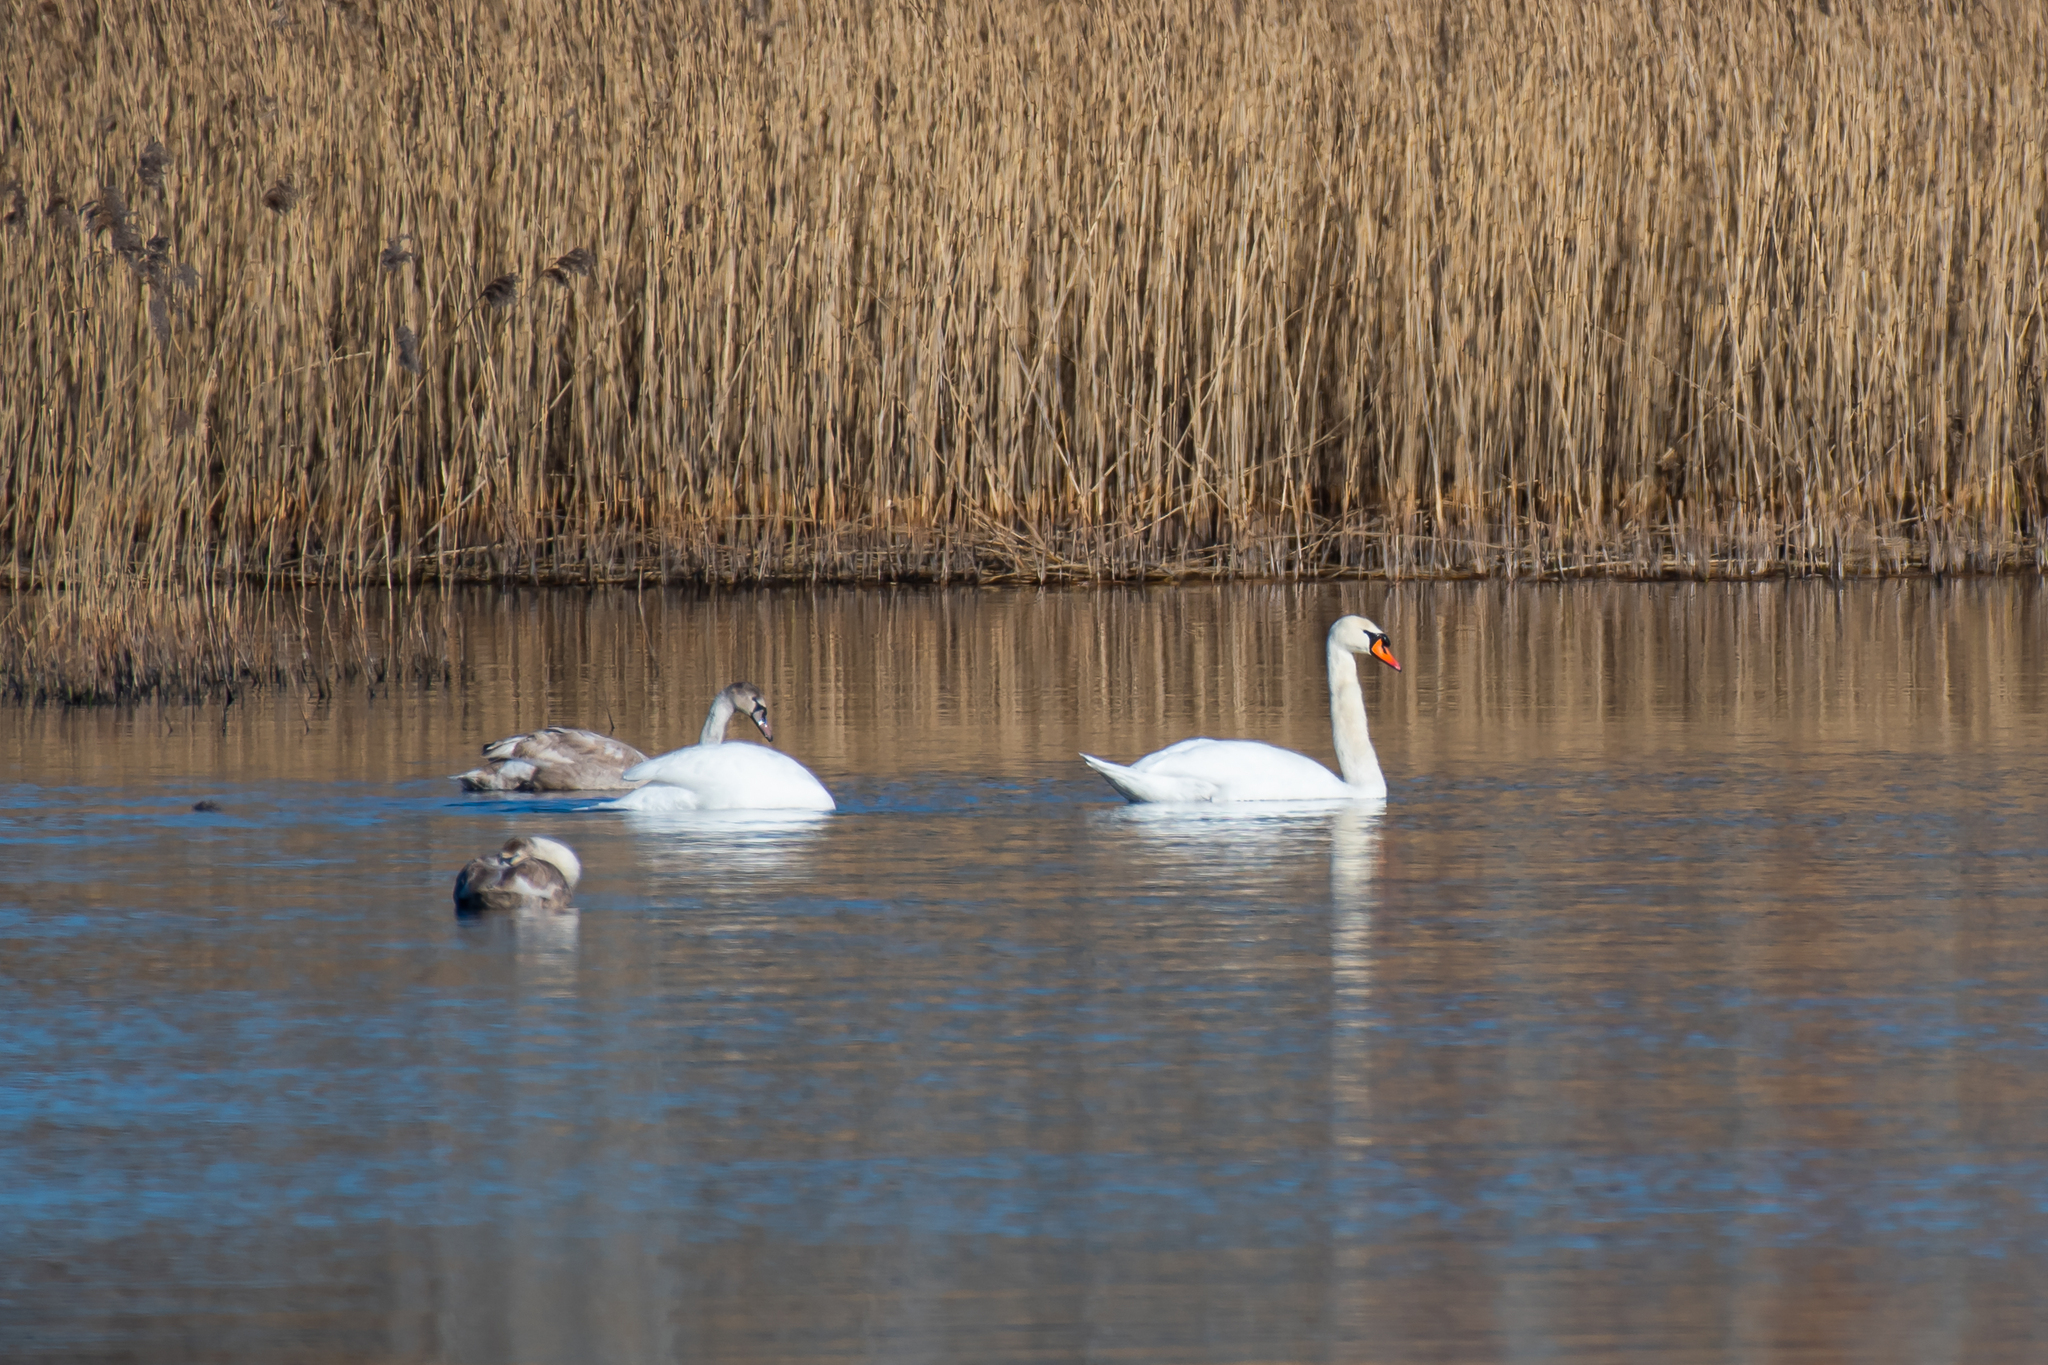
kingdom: Animalia
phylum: Chordata
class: Aves
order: Anseriformes
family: Anatidae
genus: Cygnus
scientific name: Cygnus olor
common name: Mute swan
